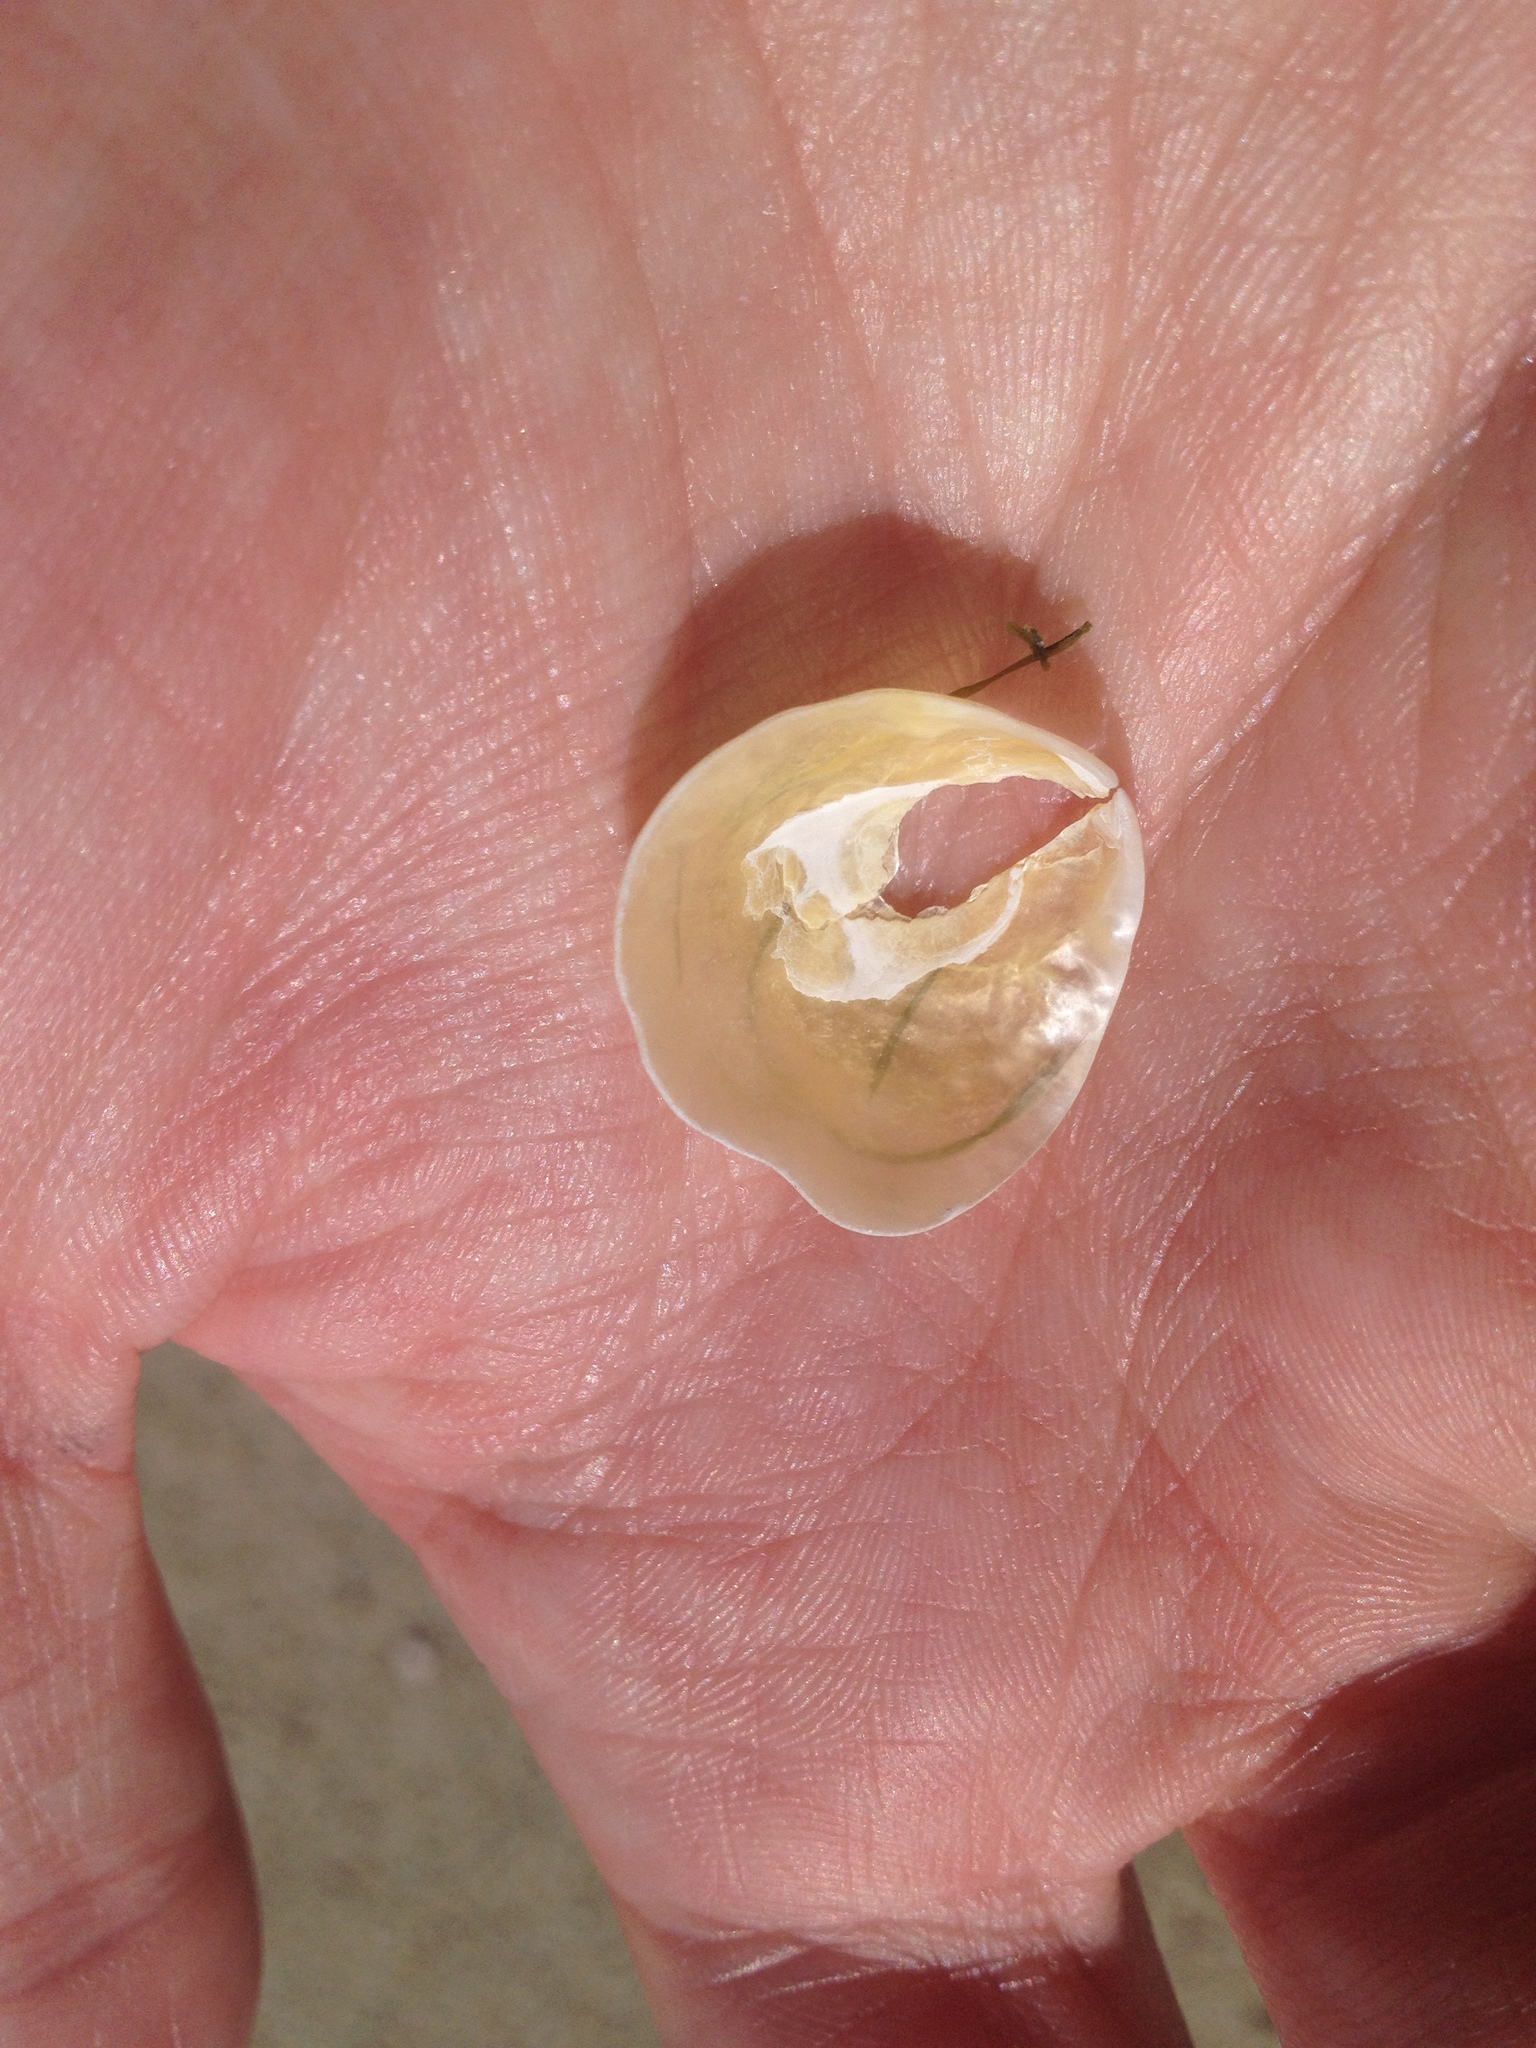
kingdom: Animalia
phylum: Mollusca
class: Bivalvia
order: Pectinida
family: Anomiidae
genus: Anomia
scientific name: Anomia simplex
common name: Common jingle shell
